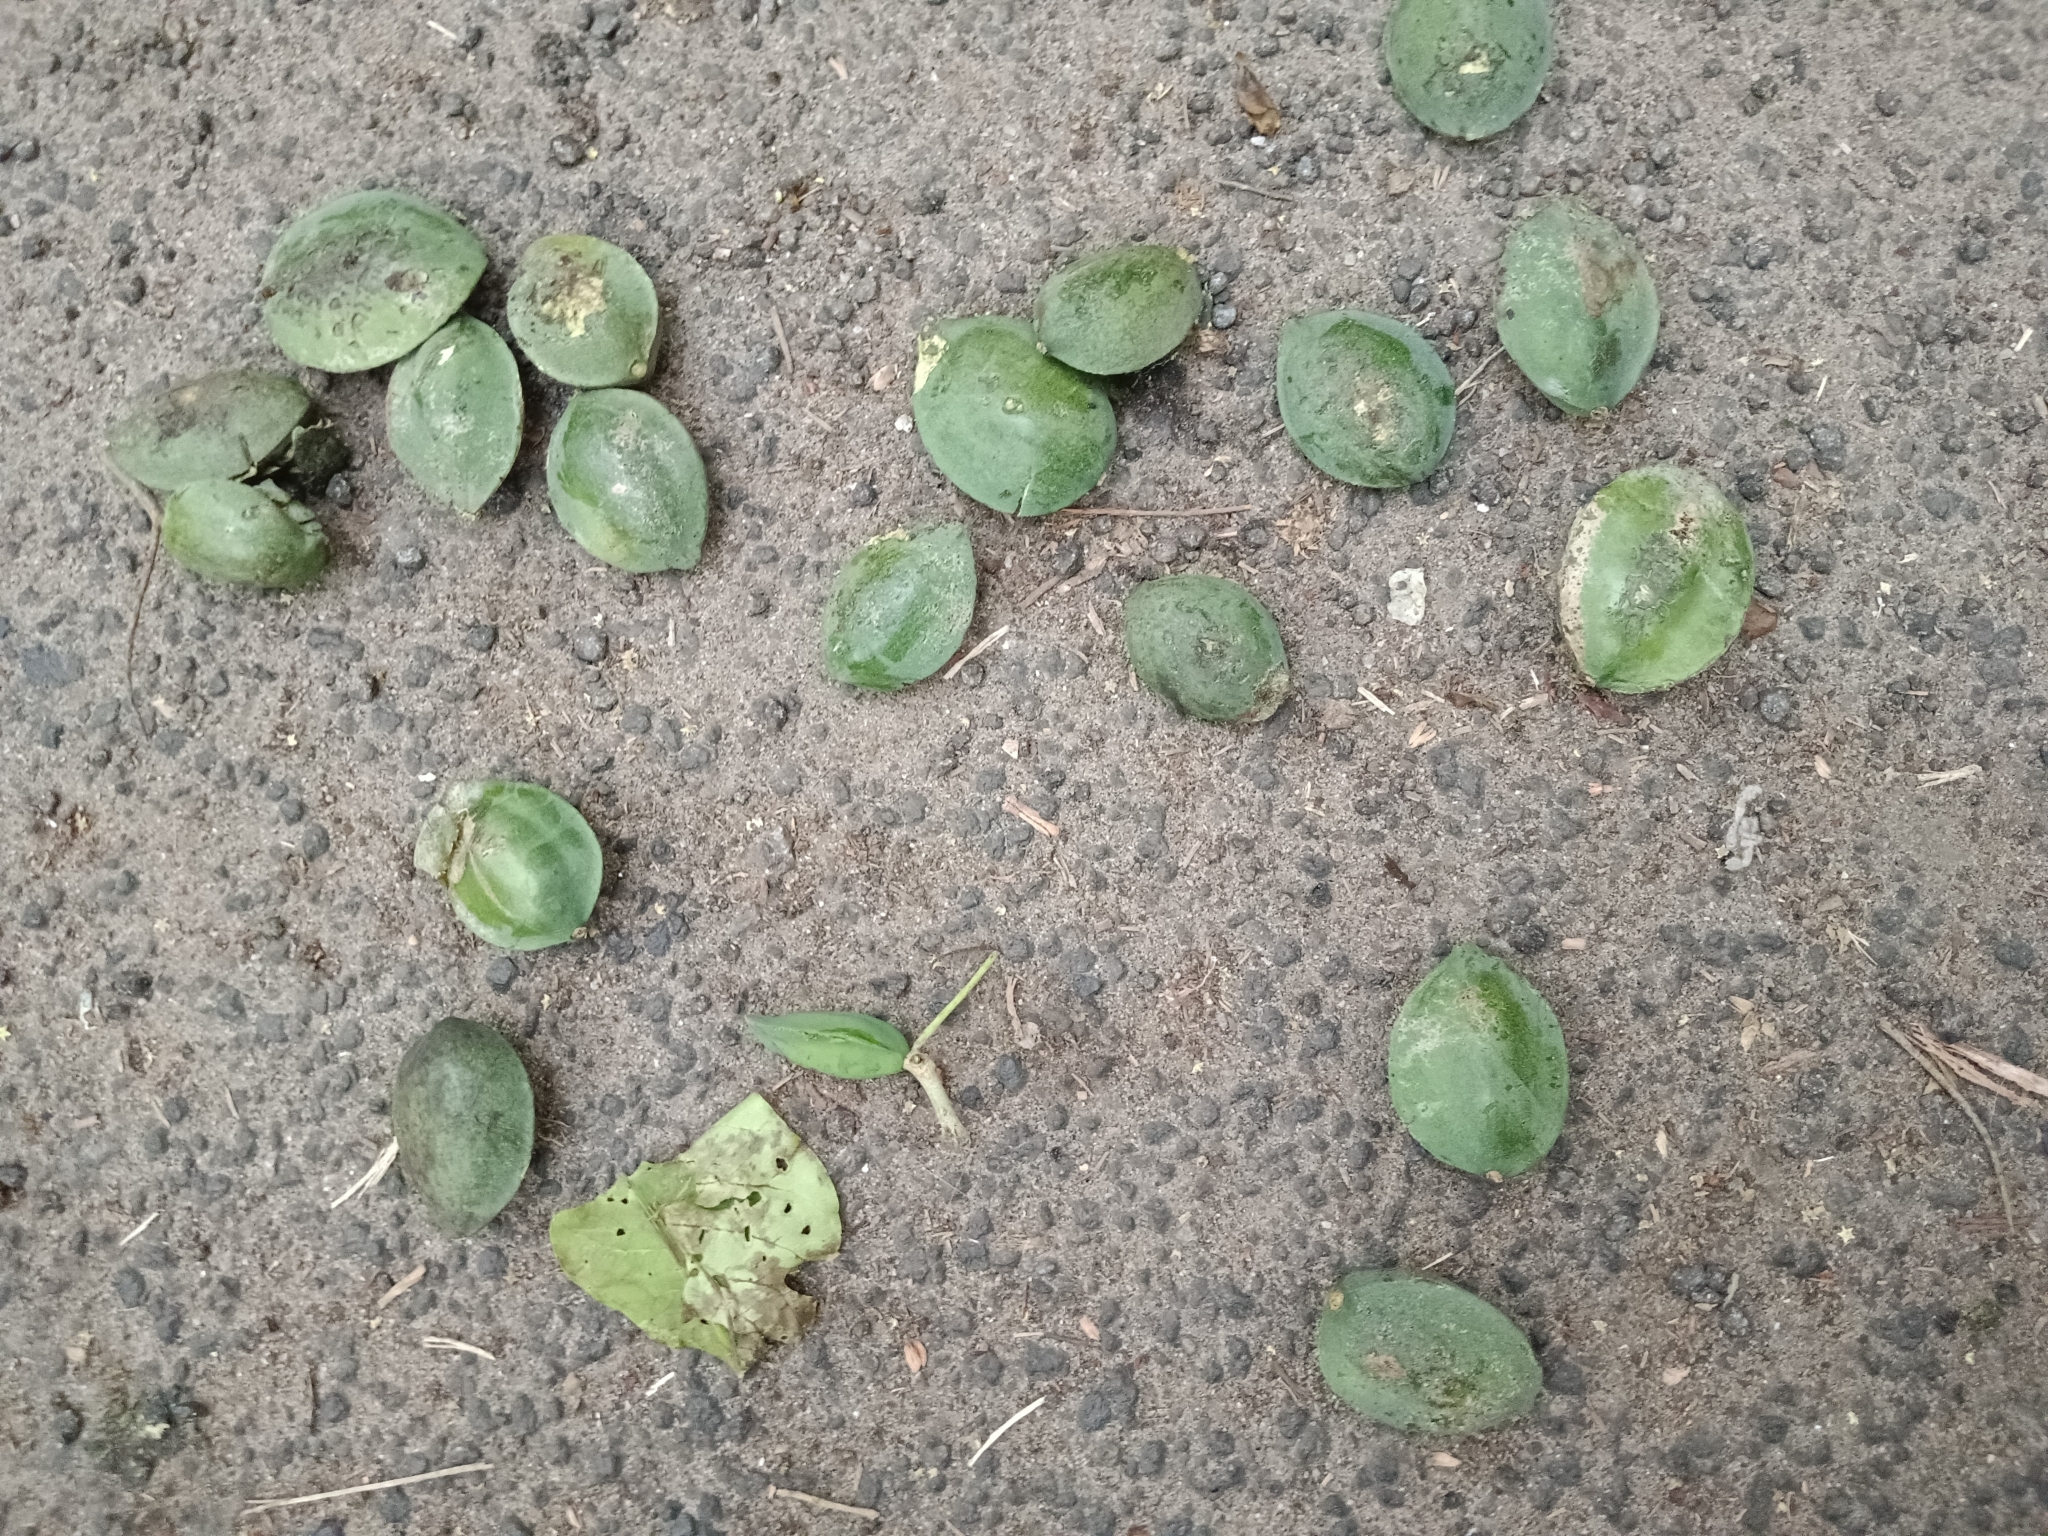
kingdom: Plantae
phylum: Tracheophyta
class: Magnoliopsida
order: Myrtales
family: Combretaceae
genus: Terminalia
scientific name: Terminalia catappa
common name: Tropical almond
